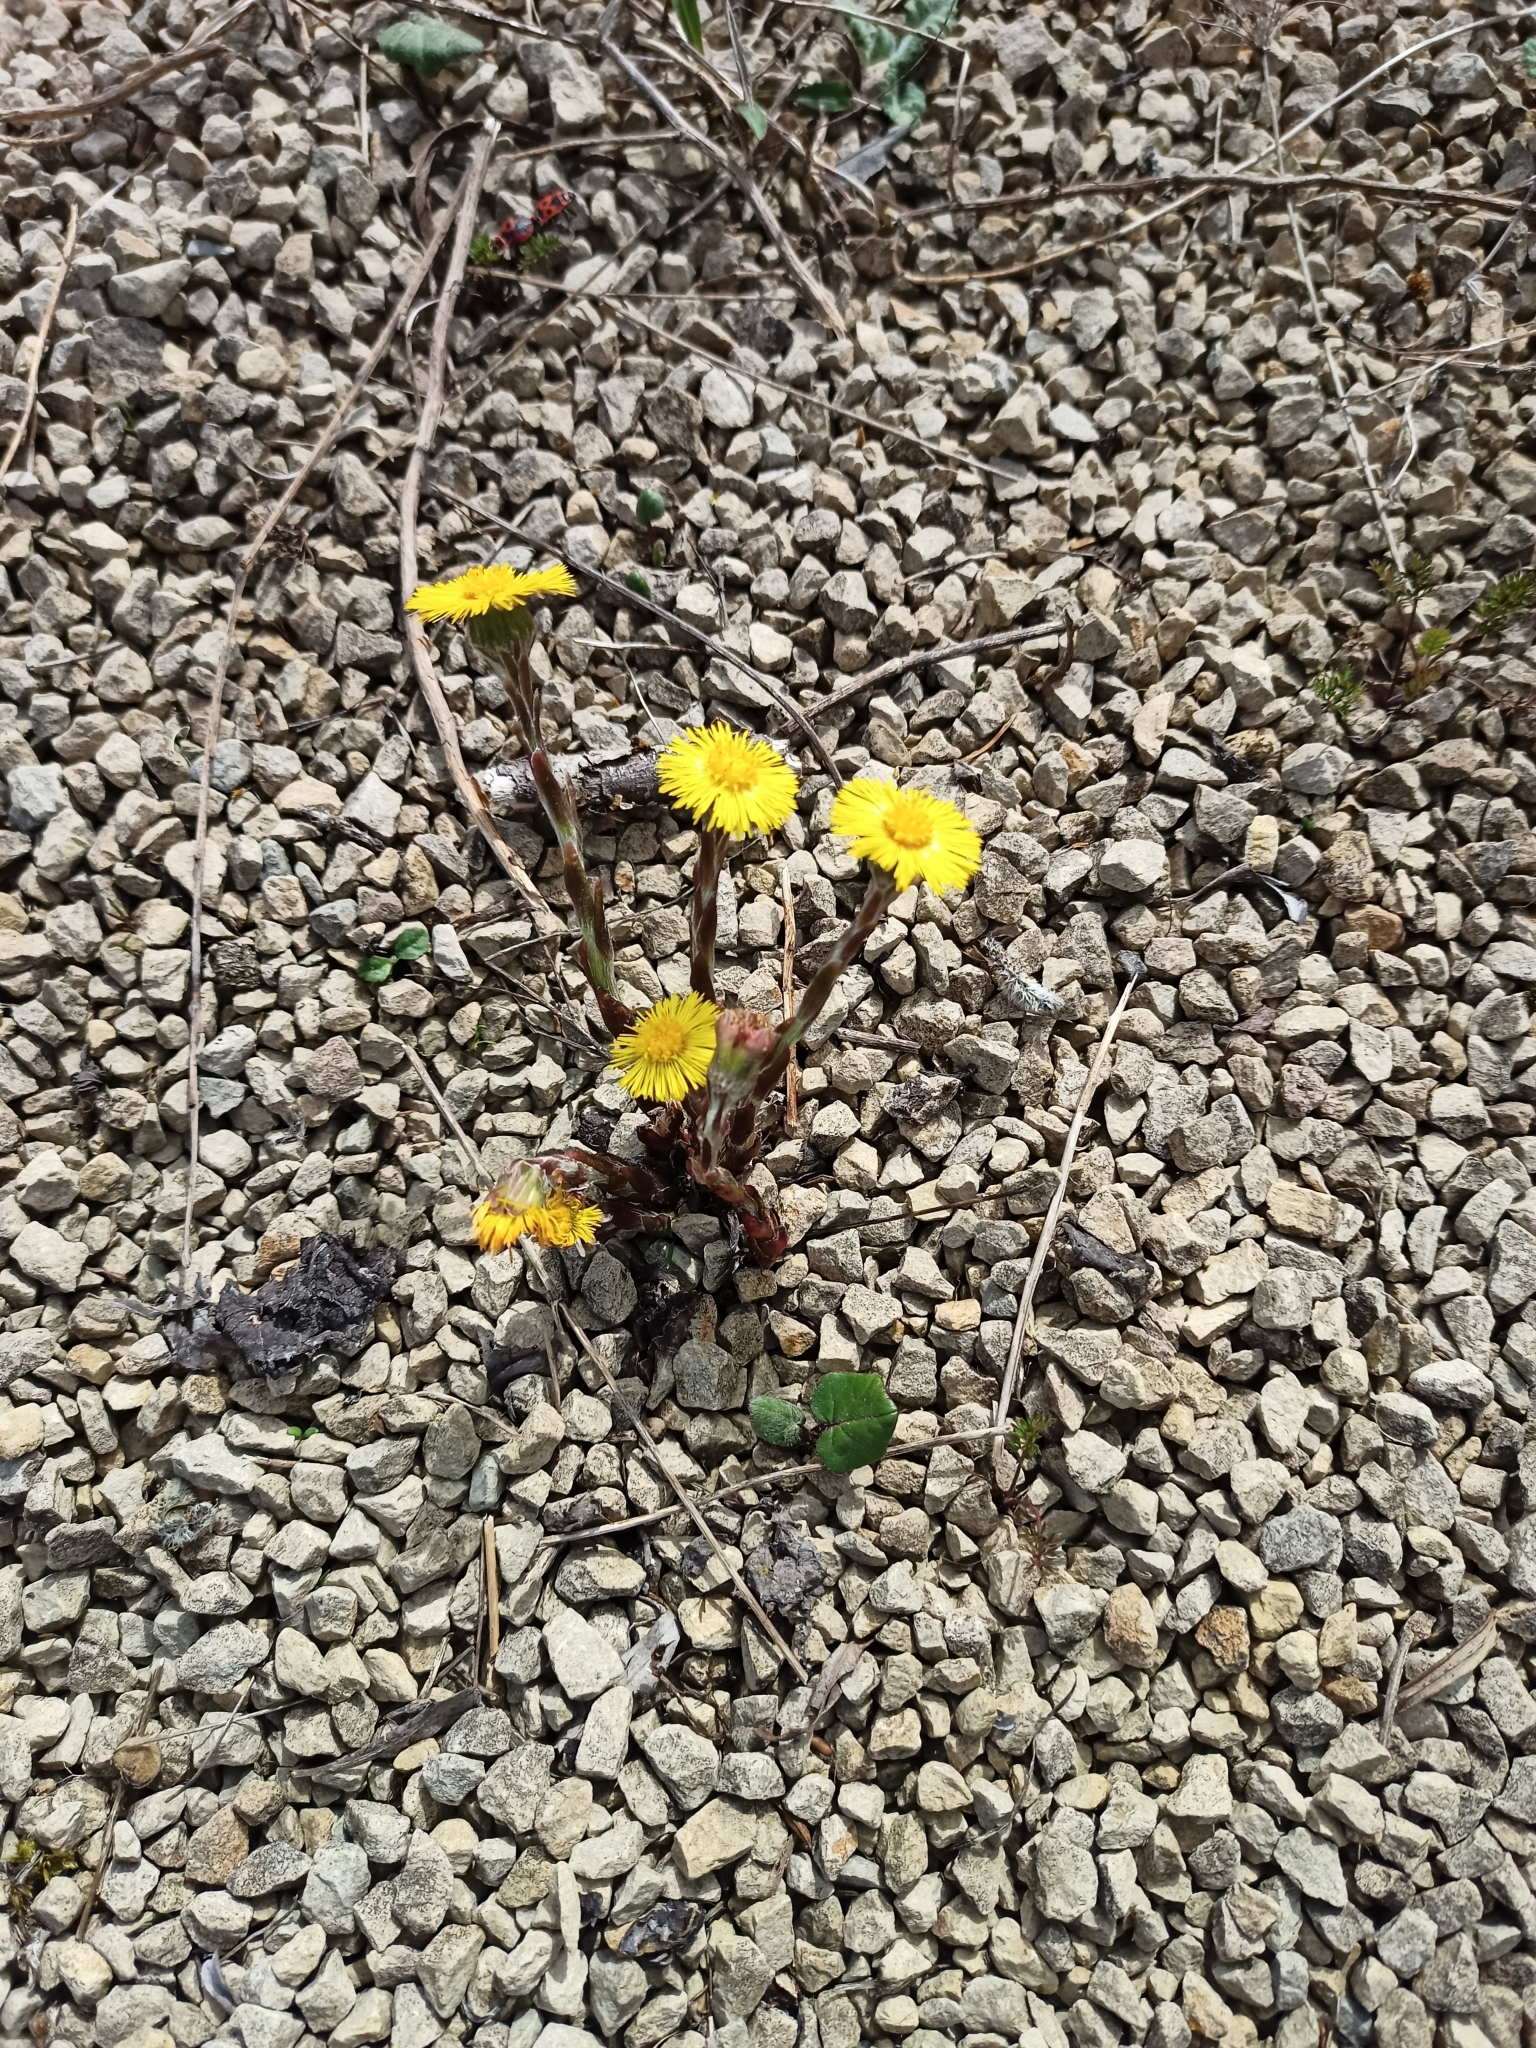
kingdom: Plantae
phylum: Tracheophyta
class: Magnoliopsida
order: Asterales
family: Asteraceae
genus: Tussilago
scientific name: Tussilago farfara
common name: Coltsfoot
